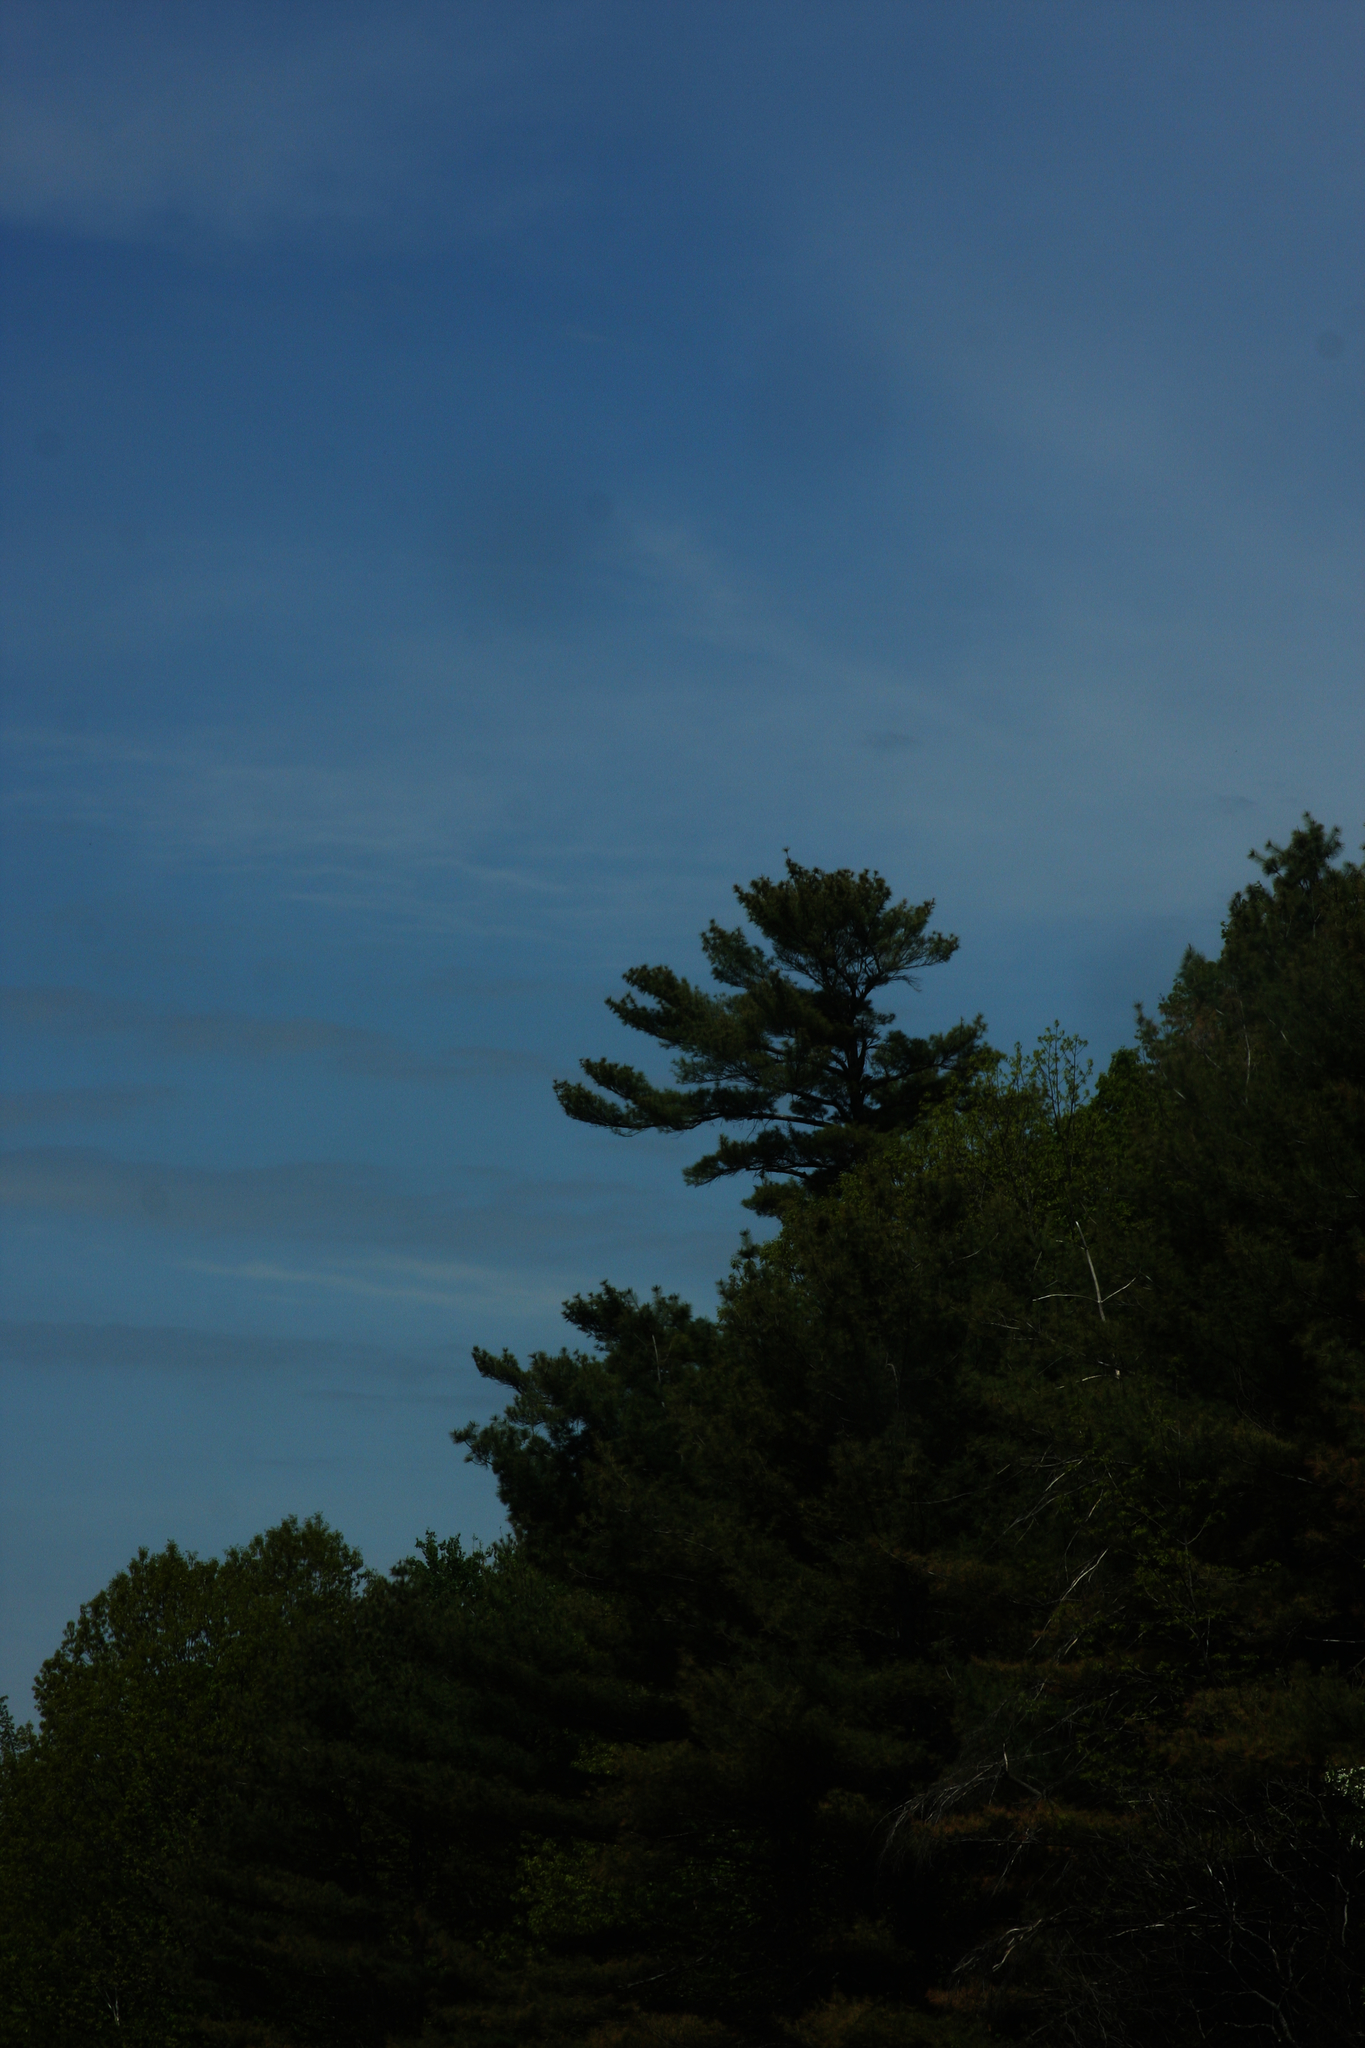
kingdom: Plantae
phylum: Tracheophyta
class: Pinopsida
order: Pinales
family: Pinaceae
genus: Pinus
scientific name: Pinus strobus
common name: Weymouth pine
